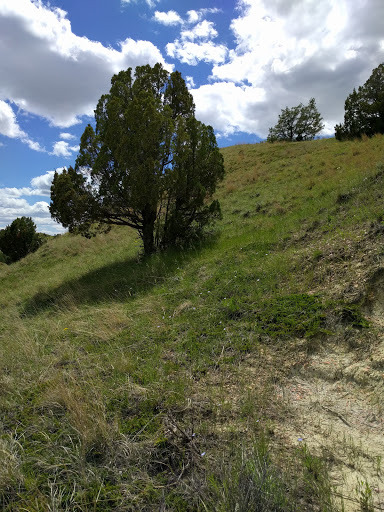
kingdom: Plantae
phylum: Tracheophyta
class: Pinopsida
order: Pinales
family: Cupressaceae
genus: Juniperus
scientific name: Juniperus scopulorum
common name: Rocky mountain juniper
